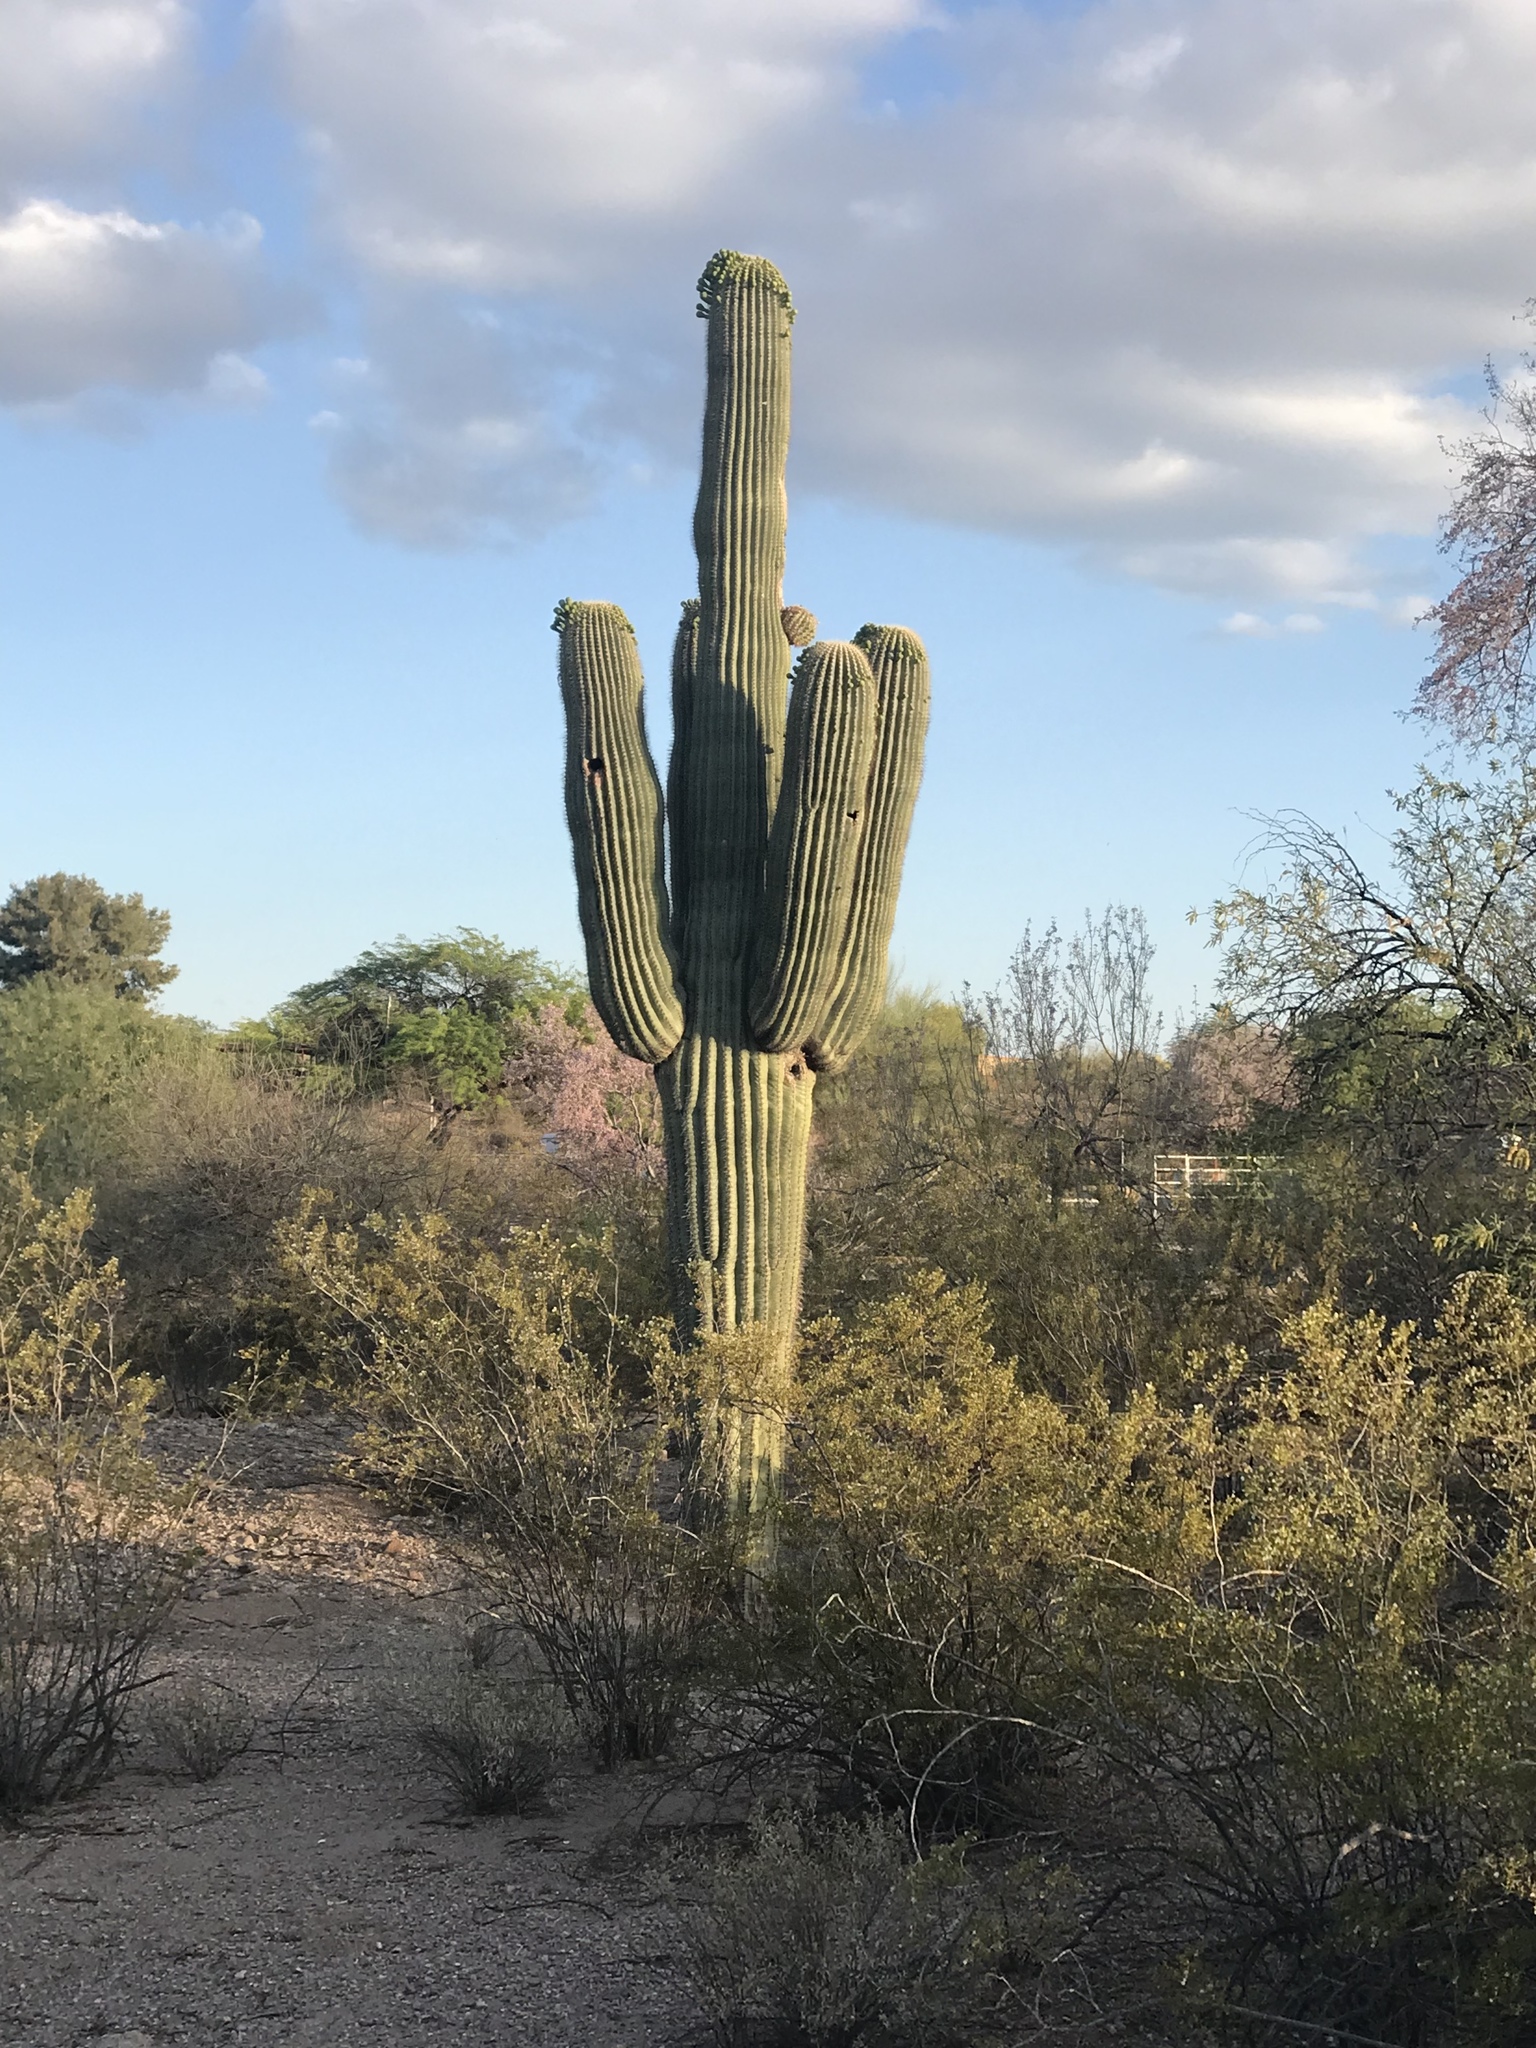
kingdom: Plantae
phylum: Tracheophyta
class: Magnoliopsida
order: Caryophyllales
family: Cactaceae
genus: Carnegiea
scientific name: Carnegiea gigantea
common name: Saguaro
